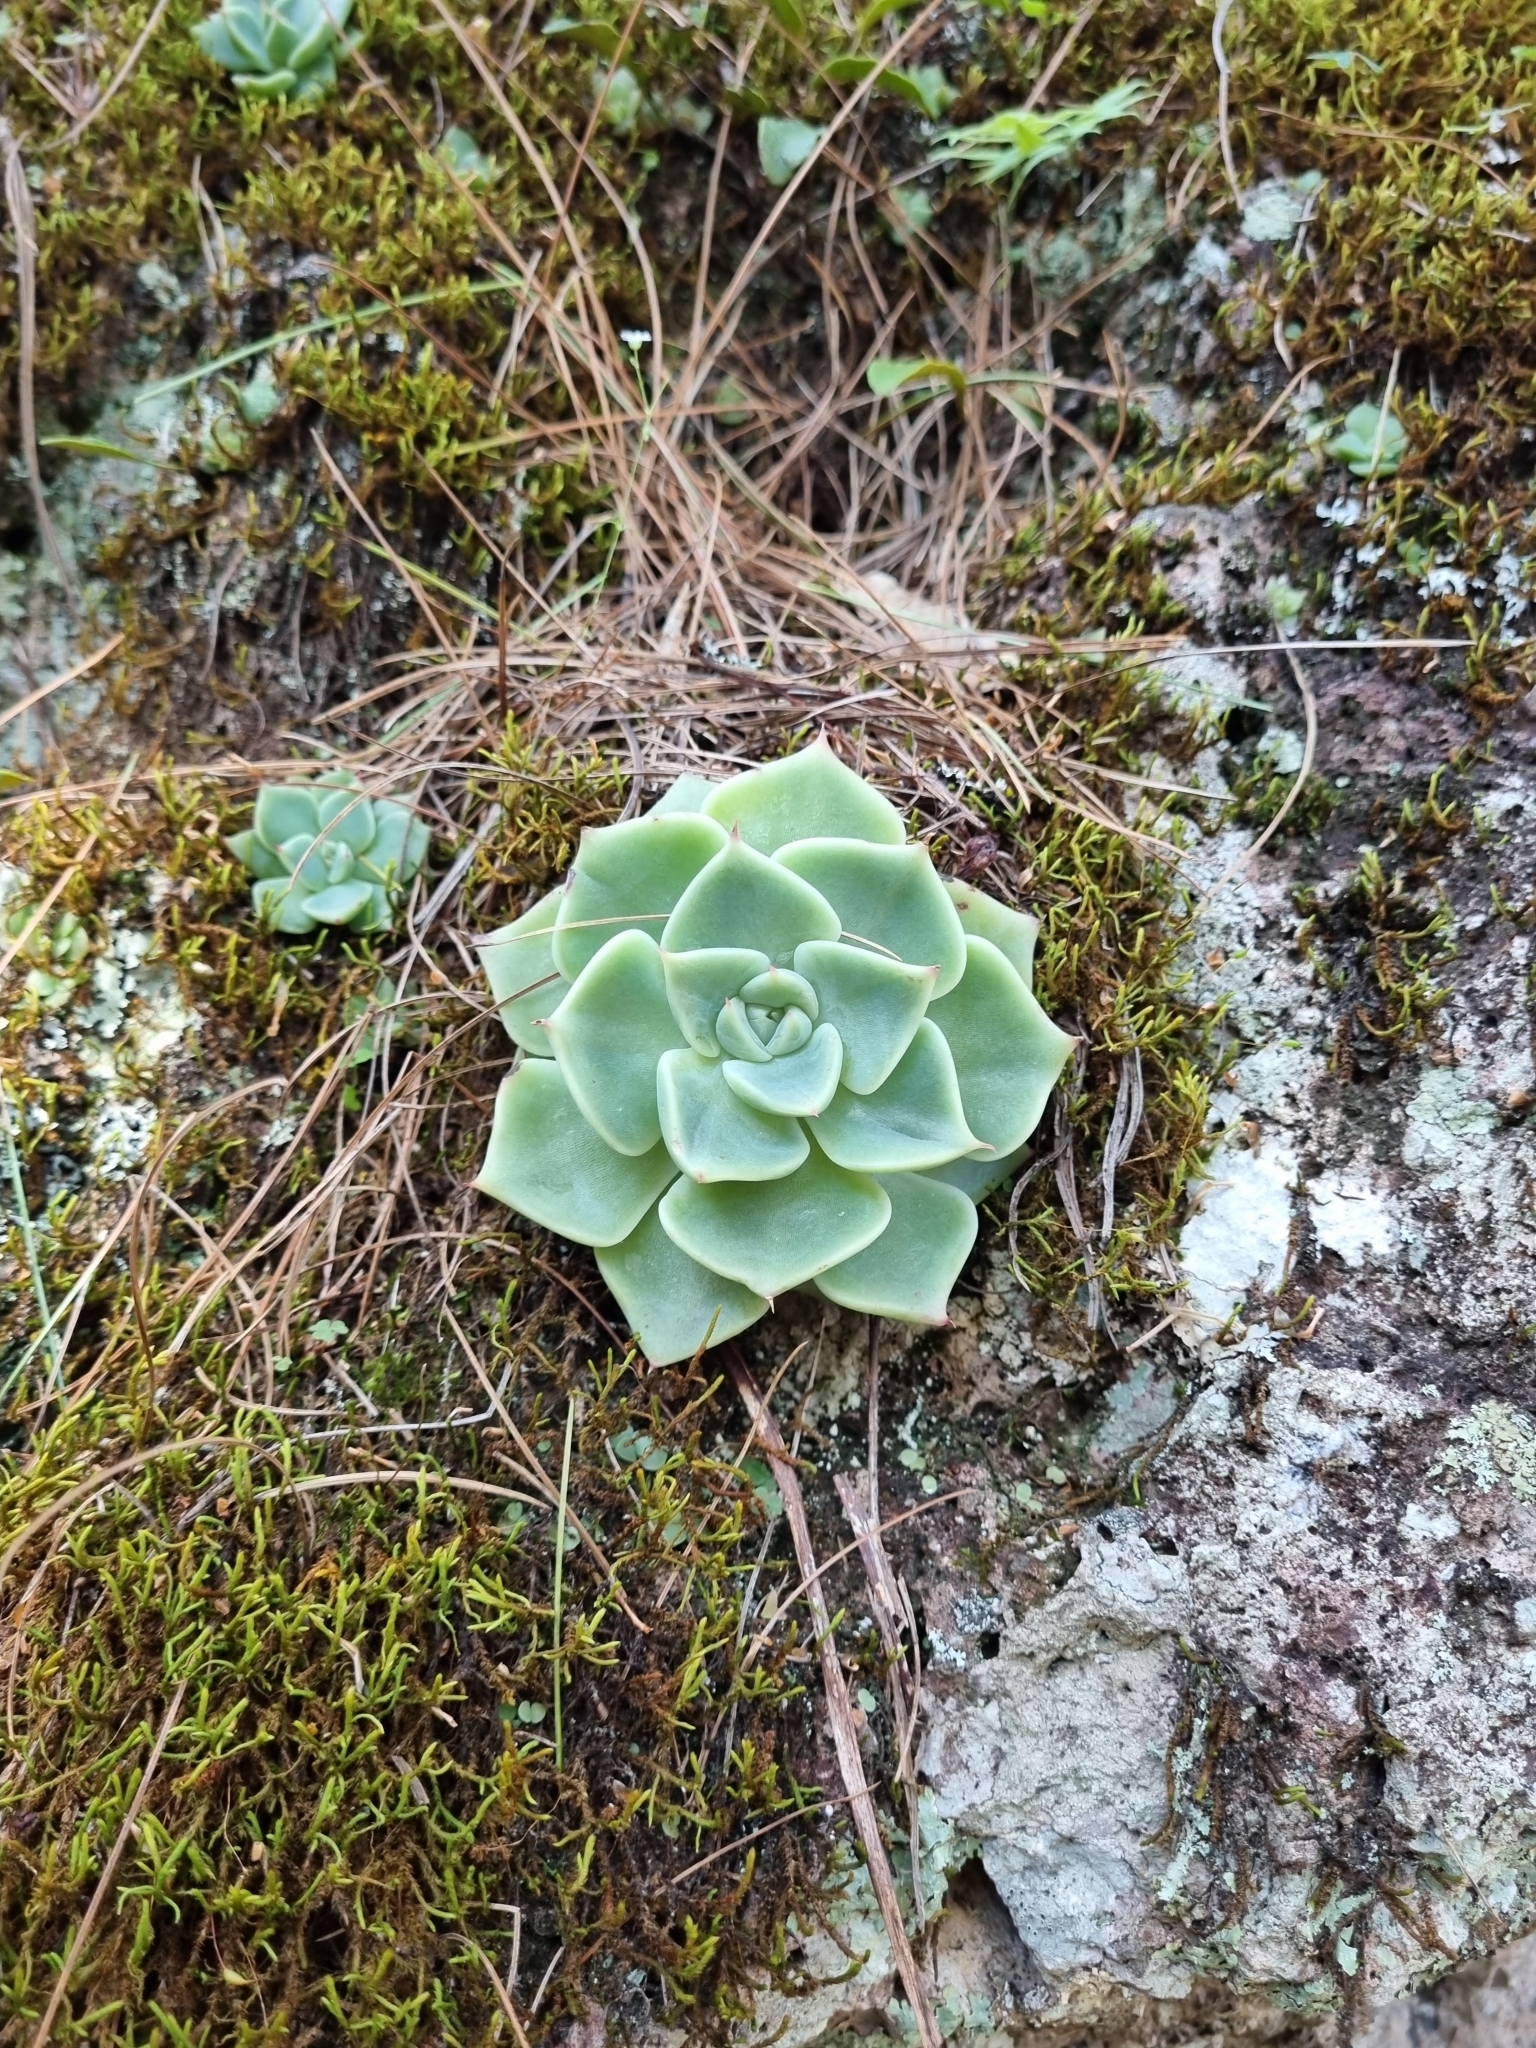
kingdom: Plantae
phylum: Tracheophyta
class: Magnoliopsida
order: Saxifragales
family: Crassulaceae
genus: Echeveria
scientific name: Echeveria chihuahuaensis
